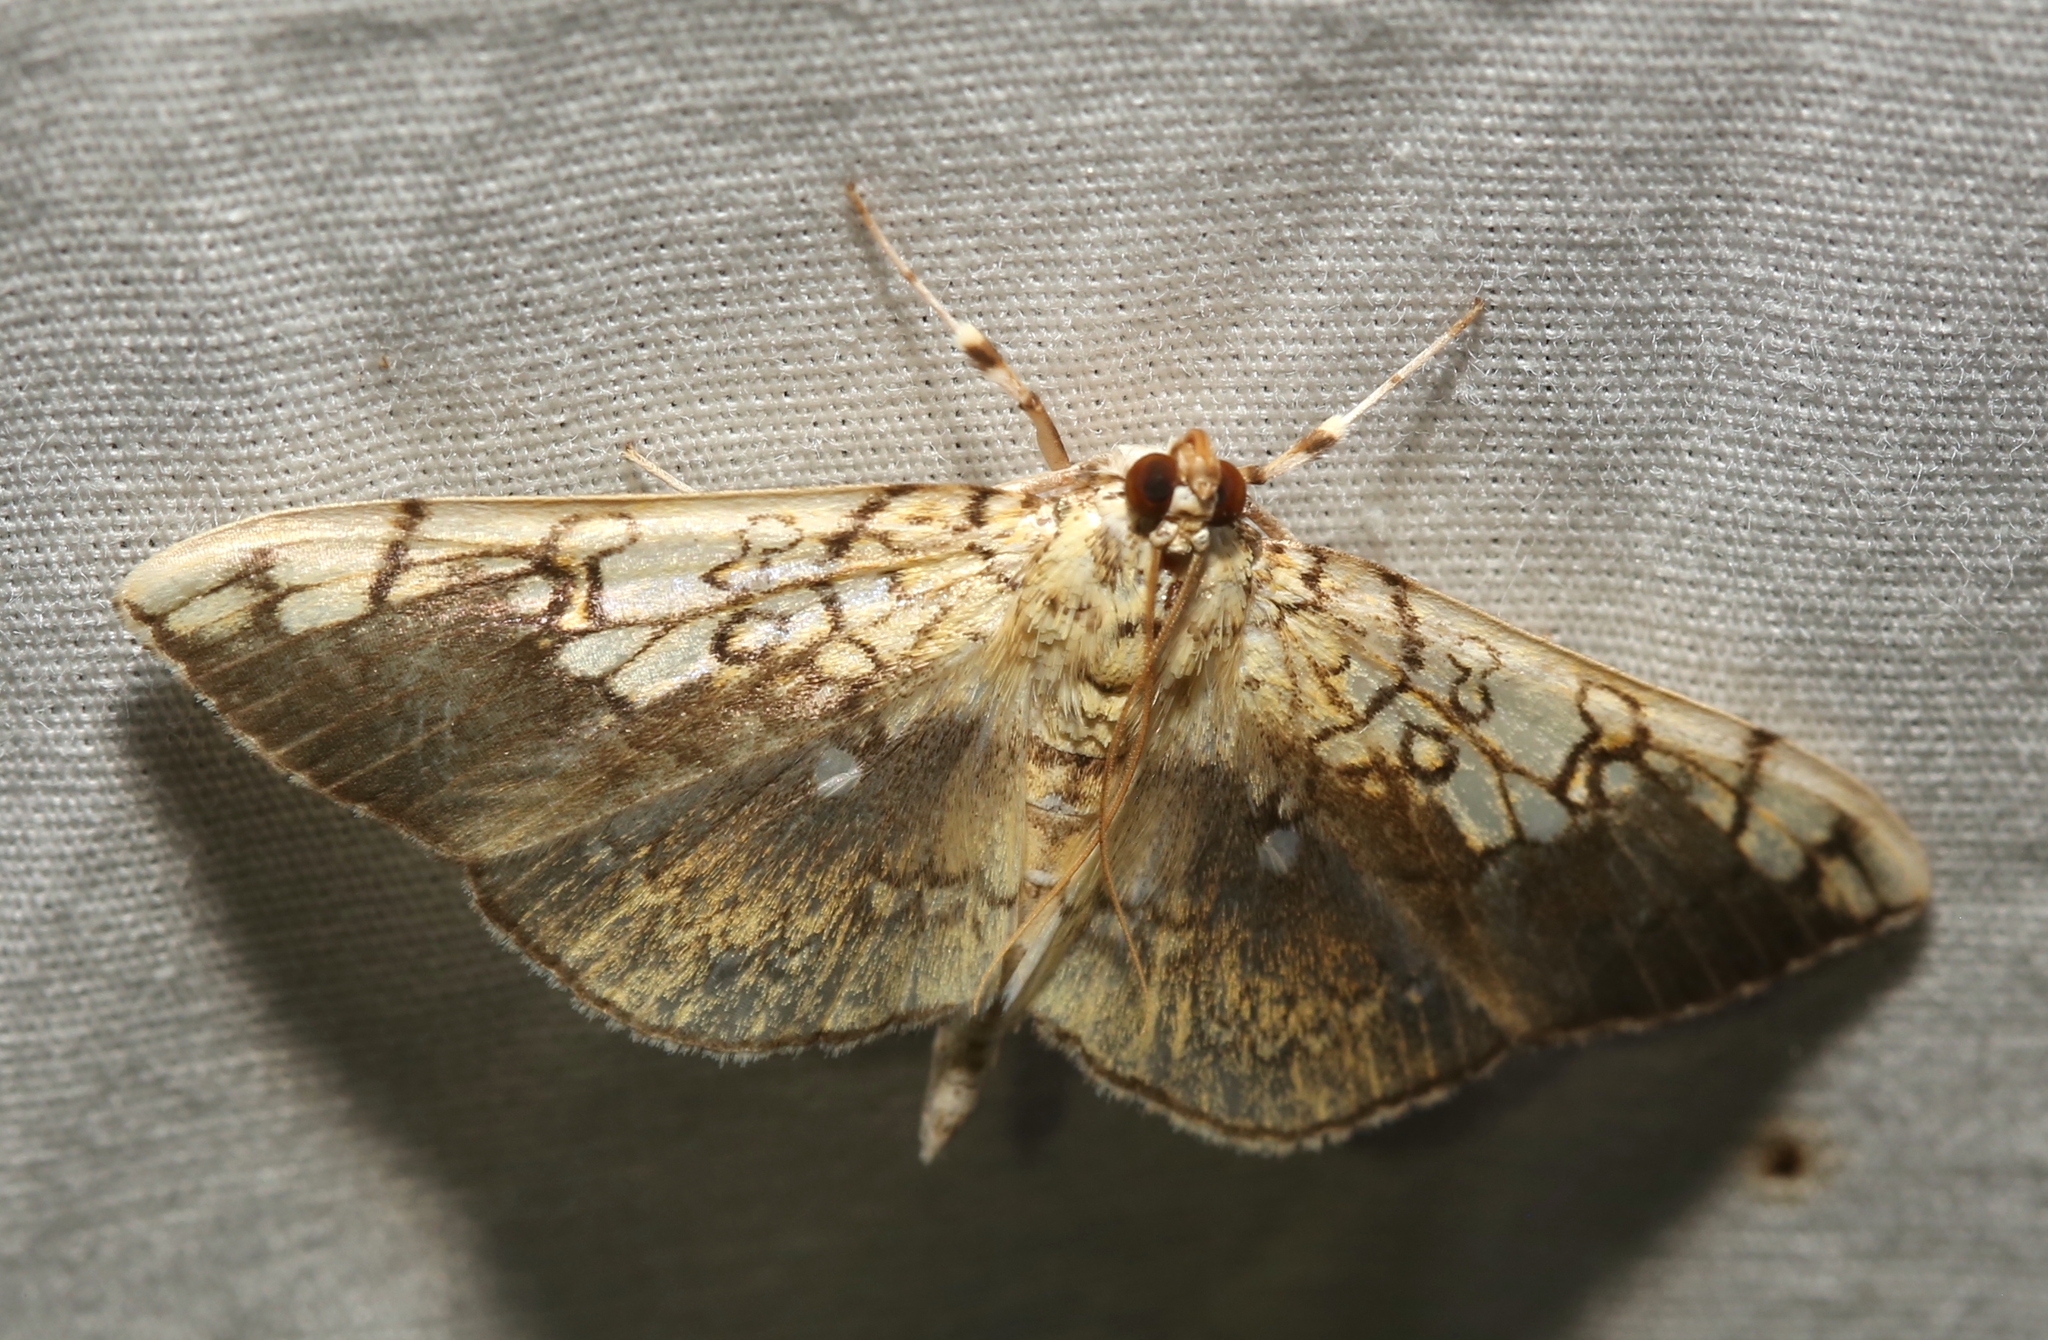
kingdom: Animalia
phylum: Arthropoda
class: Insecta
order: Lepidoptera
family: Crambidae
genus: Pantographa
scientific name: Pantographa limata
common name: Basswood leafroller moth
